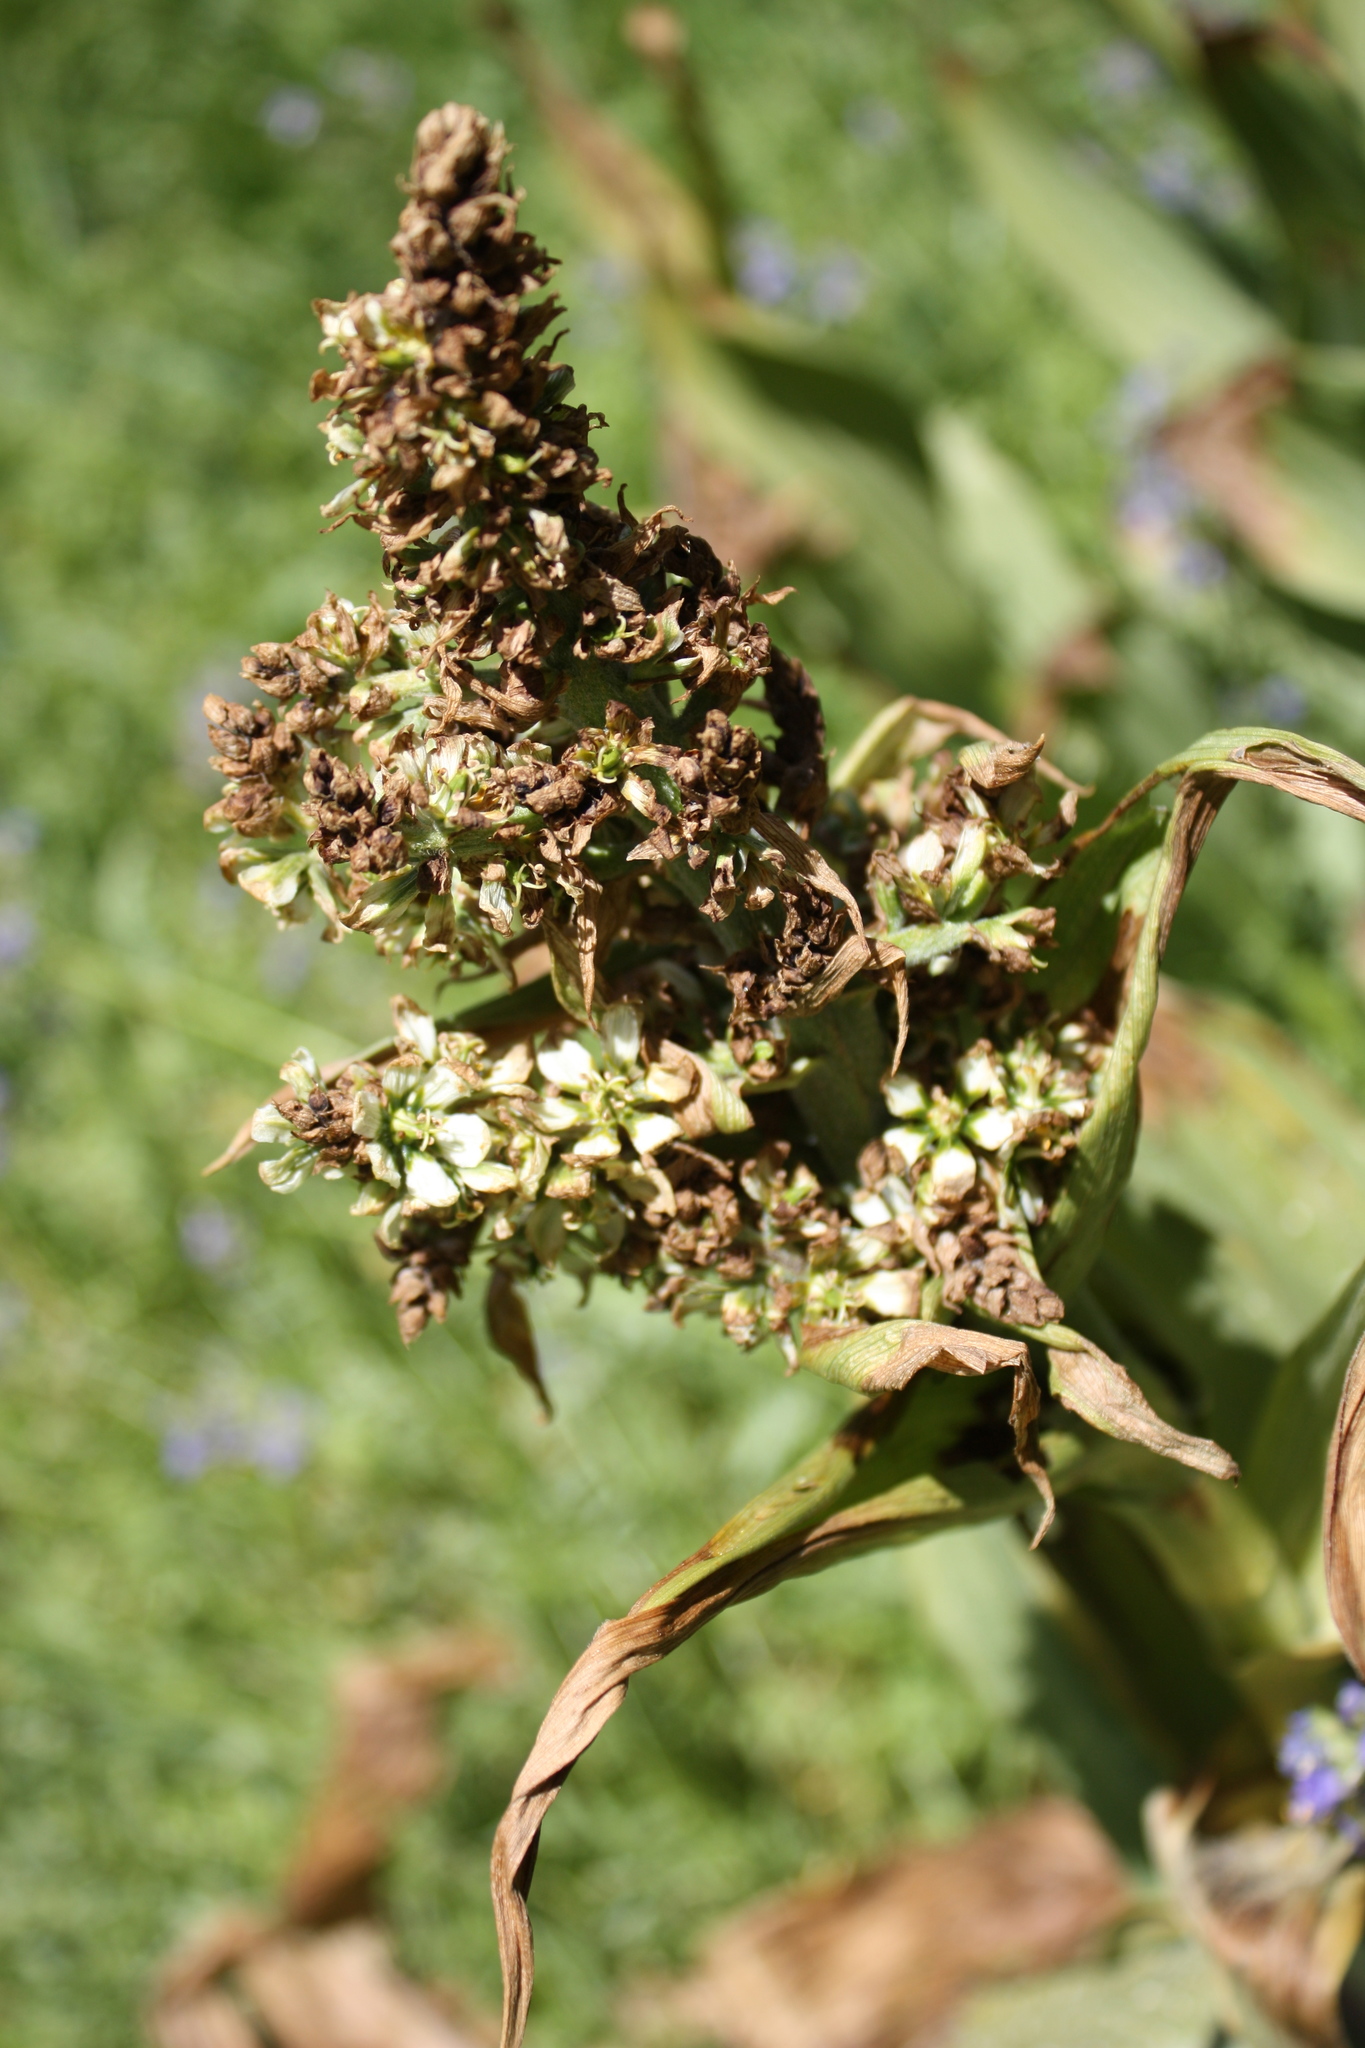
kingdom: Plantae
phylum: Tracheophyta
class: Liliopsida
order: Liliales
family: Melanthiaceae
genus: Veratrum
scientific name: Veratrum californicum
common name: California veratrum
